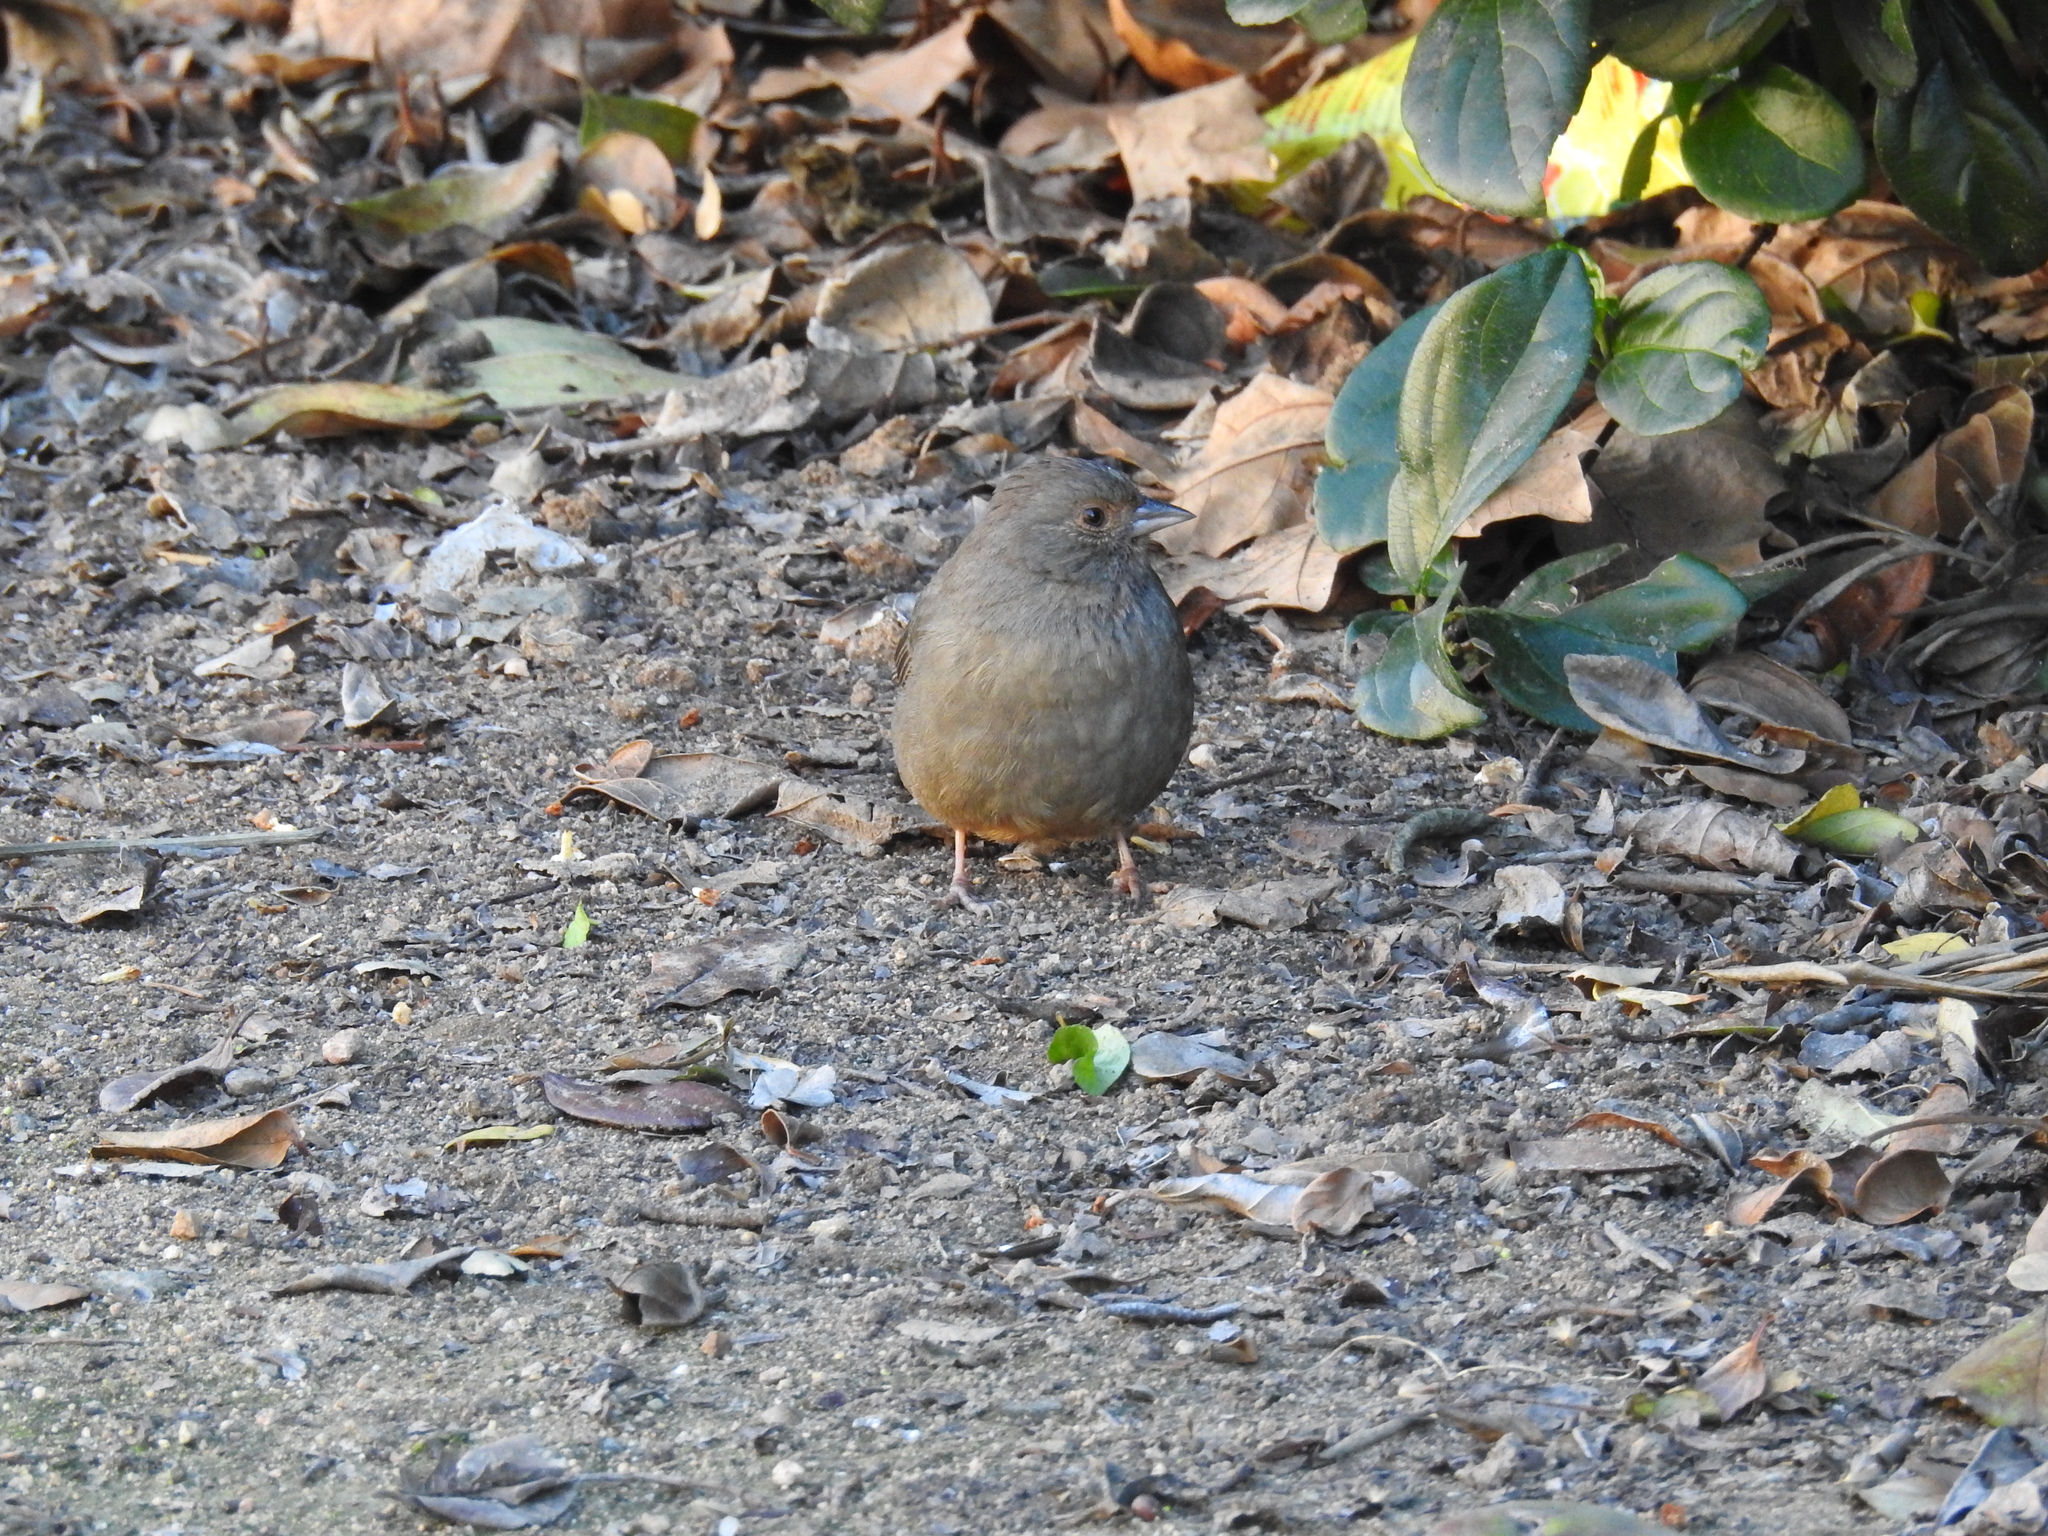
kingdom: Animalia
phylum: Chordata
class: Aves
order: Passeriformes
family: Passerellidae
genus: Melozone
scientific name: Melozone crissalis
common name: California towhee
